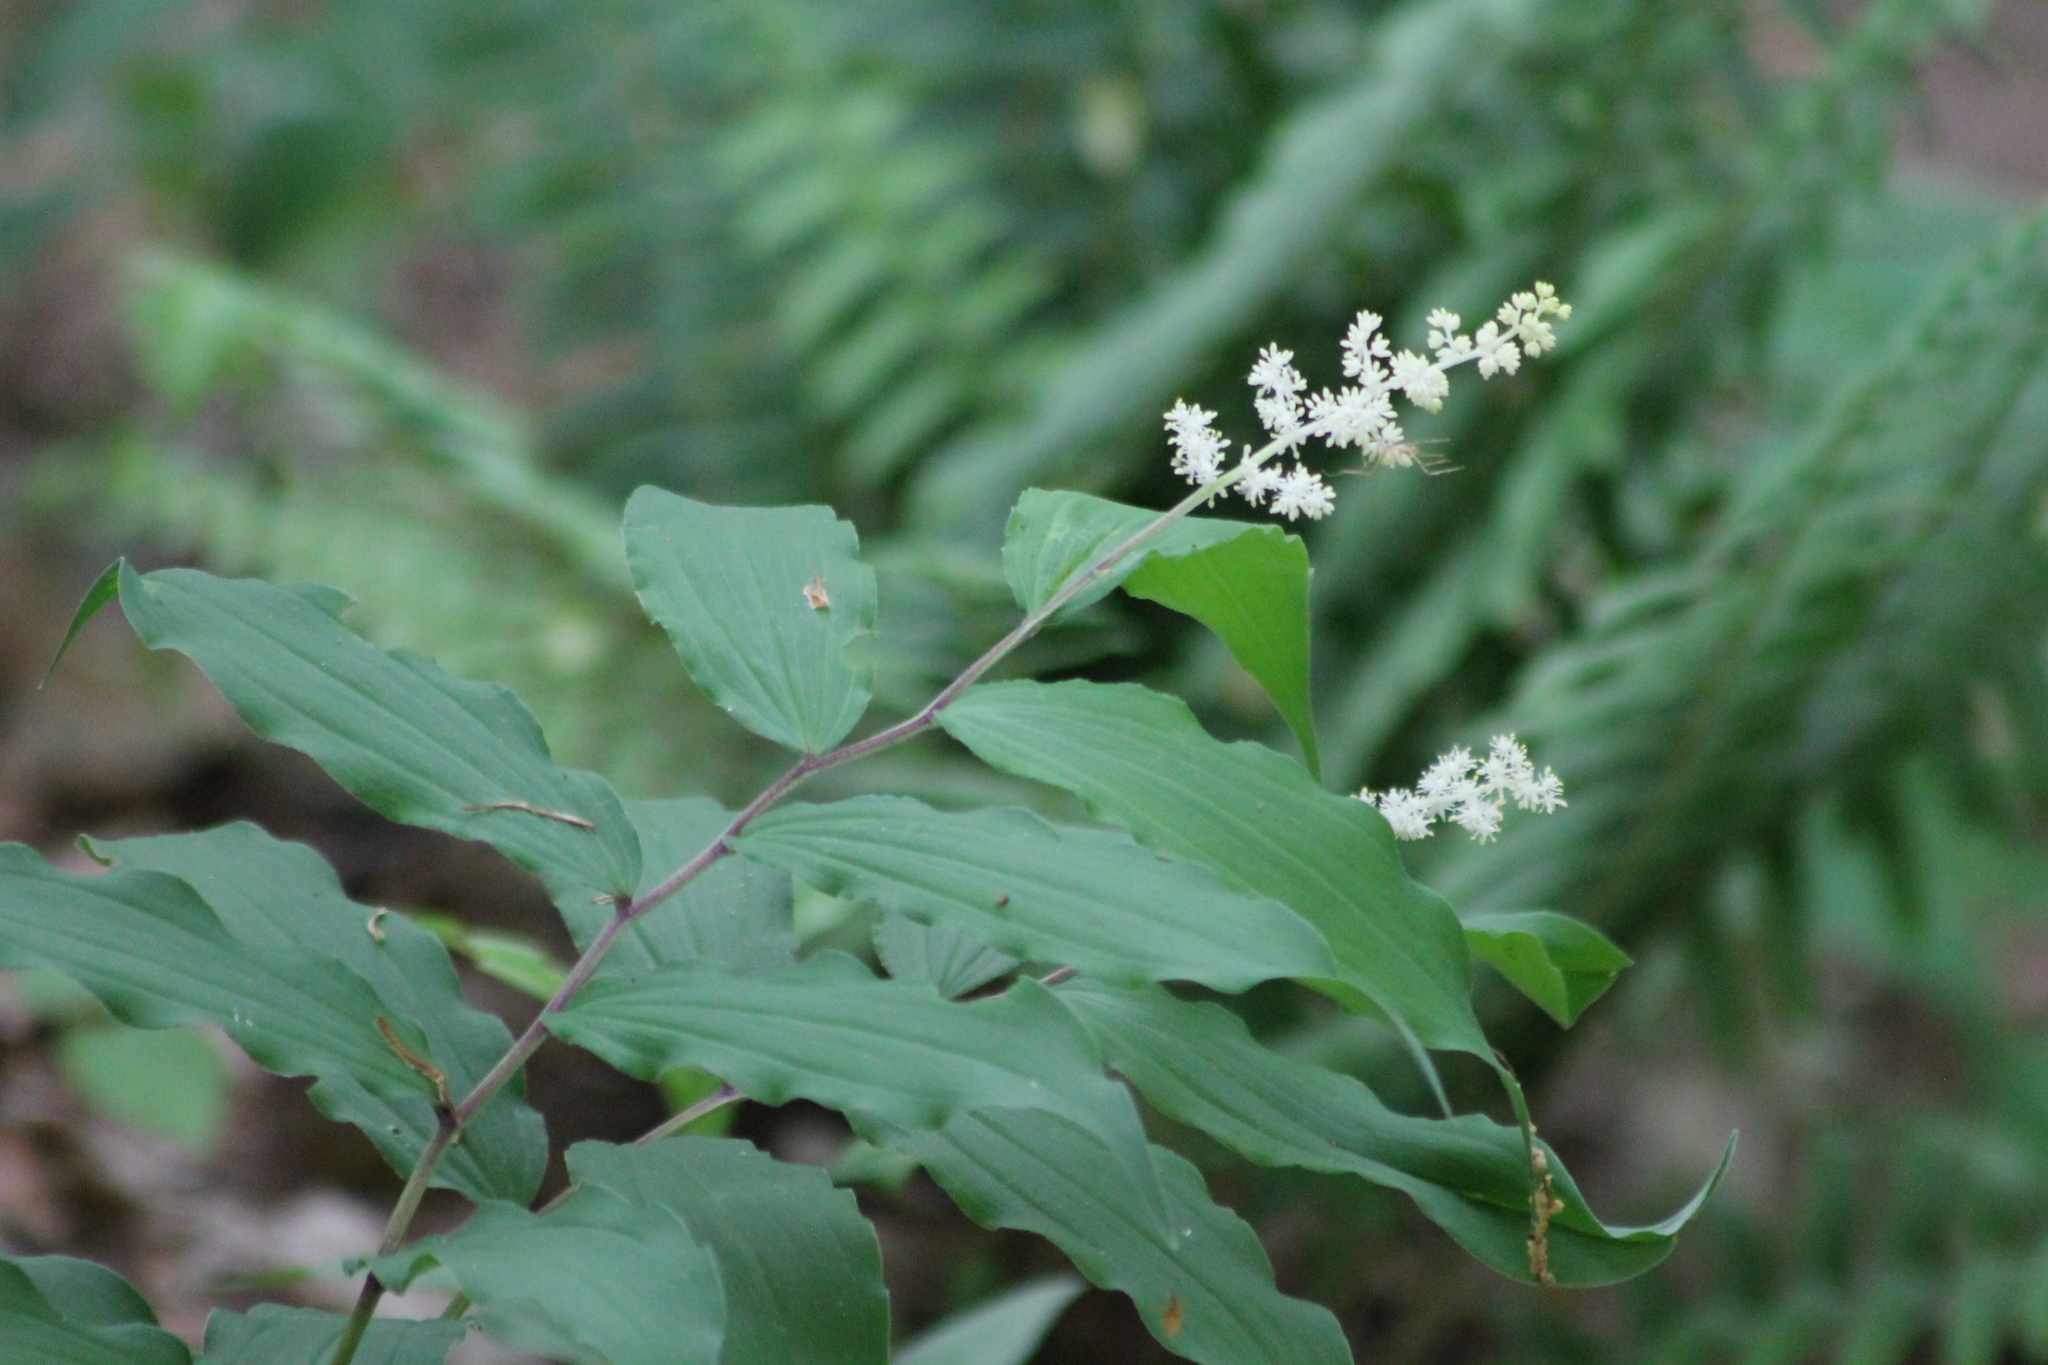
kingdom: Plantae
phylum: Tracheophyta
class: Liliopsida
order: Asparagales
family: Asparagaceae
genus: Maianthemum
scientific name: Maianthemum racemosum
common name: False spikenard
